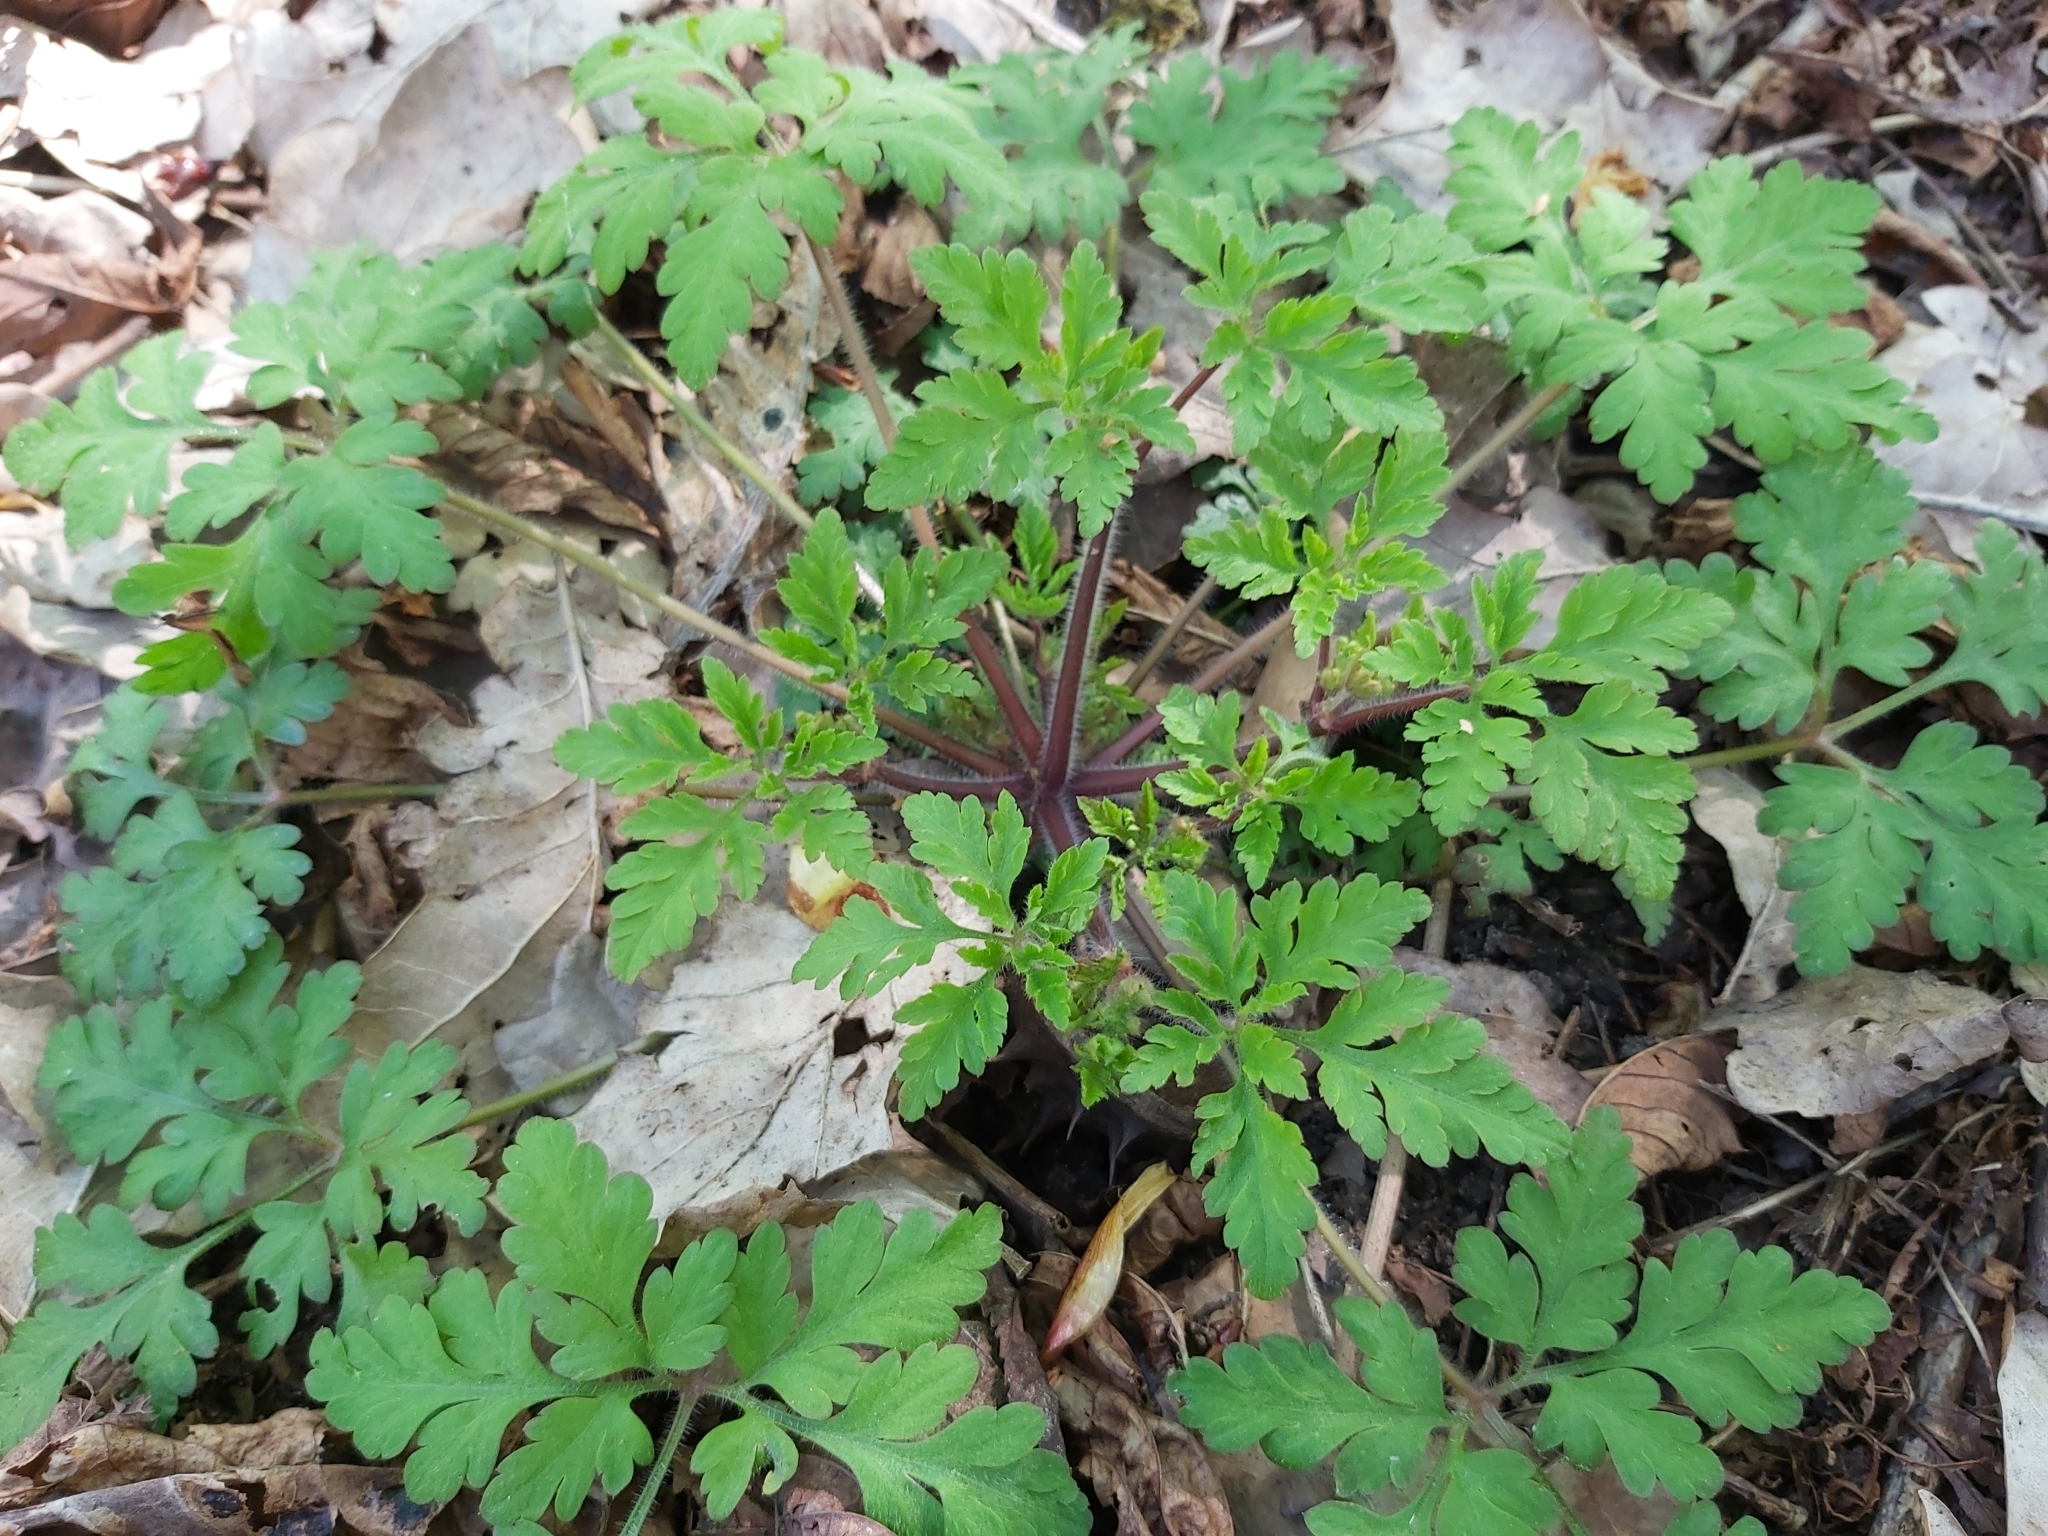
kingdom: Plantae
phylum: Tracheophyta
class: Magnoliopsida
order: Geraniales
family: Geraniaceae
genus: Geranium
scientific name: Geranium robertianum
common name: Herb-robert
